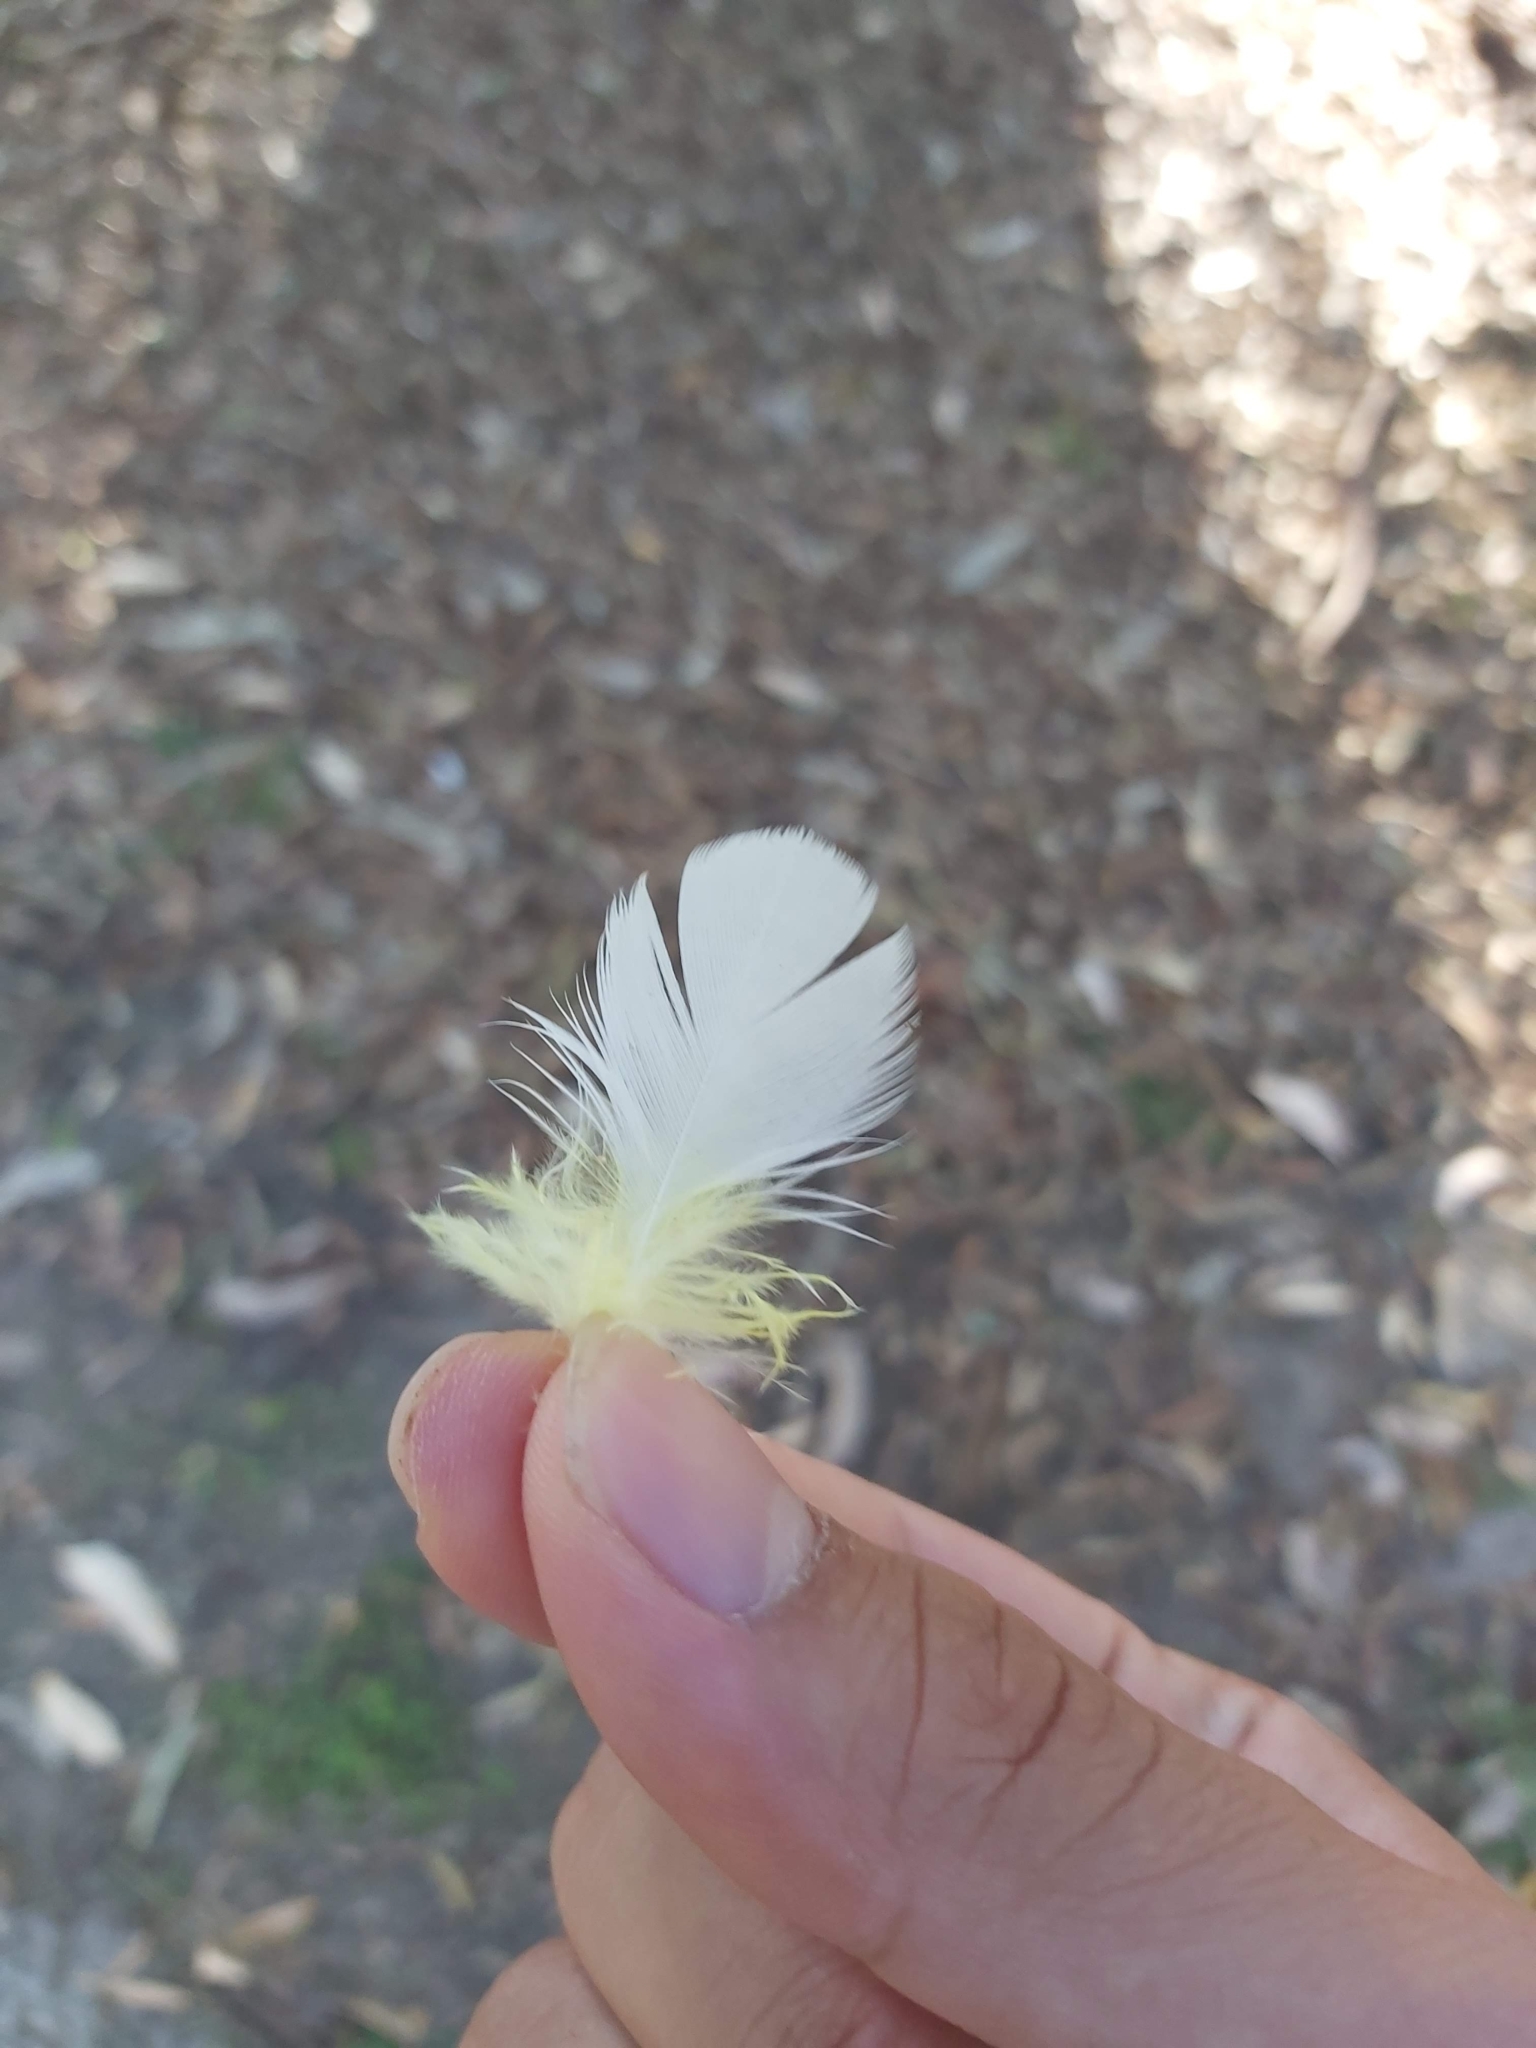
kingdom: Animalia
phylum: Chordata
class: Aves
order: Psittaciformes
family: Psittacidae
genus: Cacatua
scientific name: Cacatua galerita
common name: Sulphur-crested cockatoo
